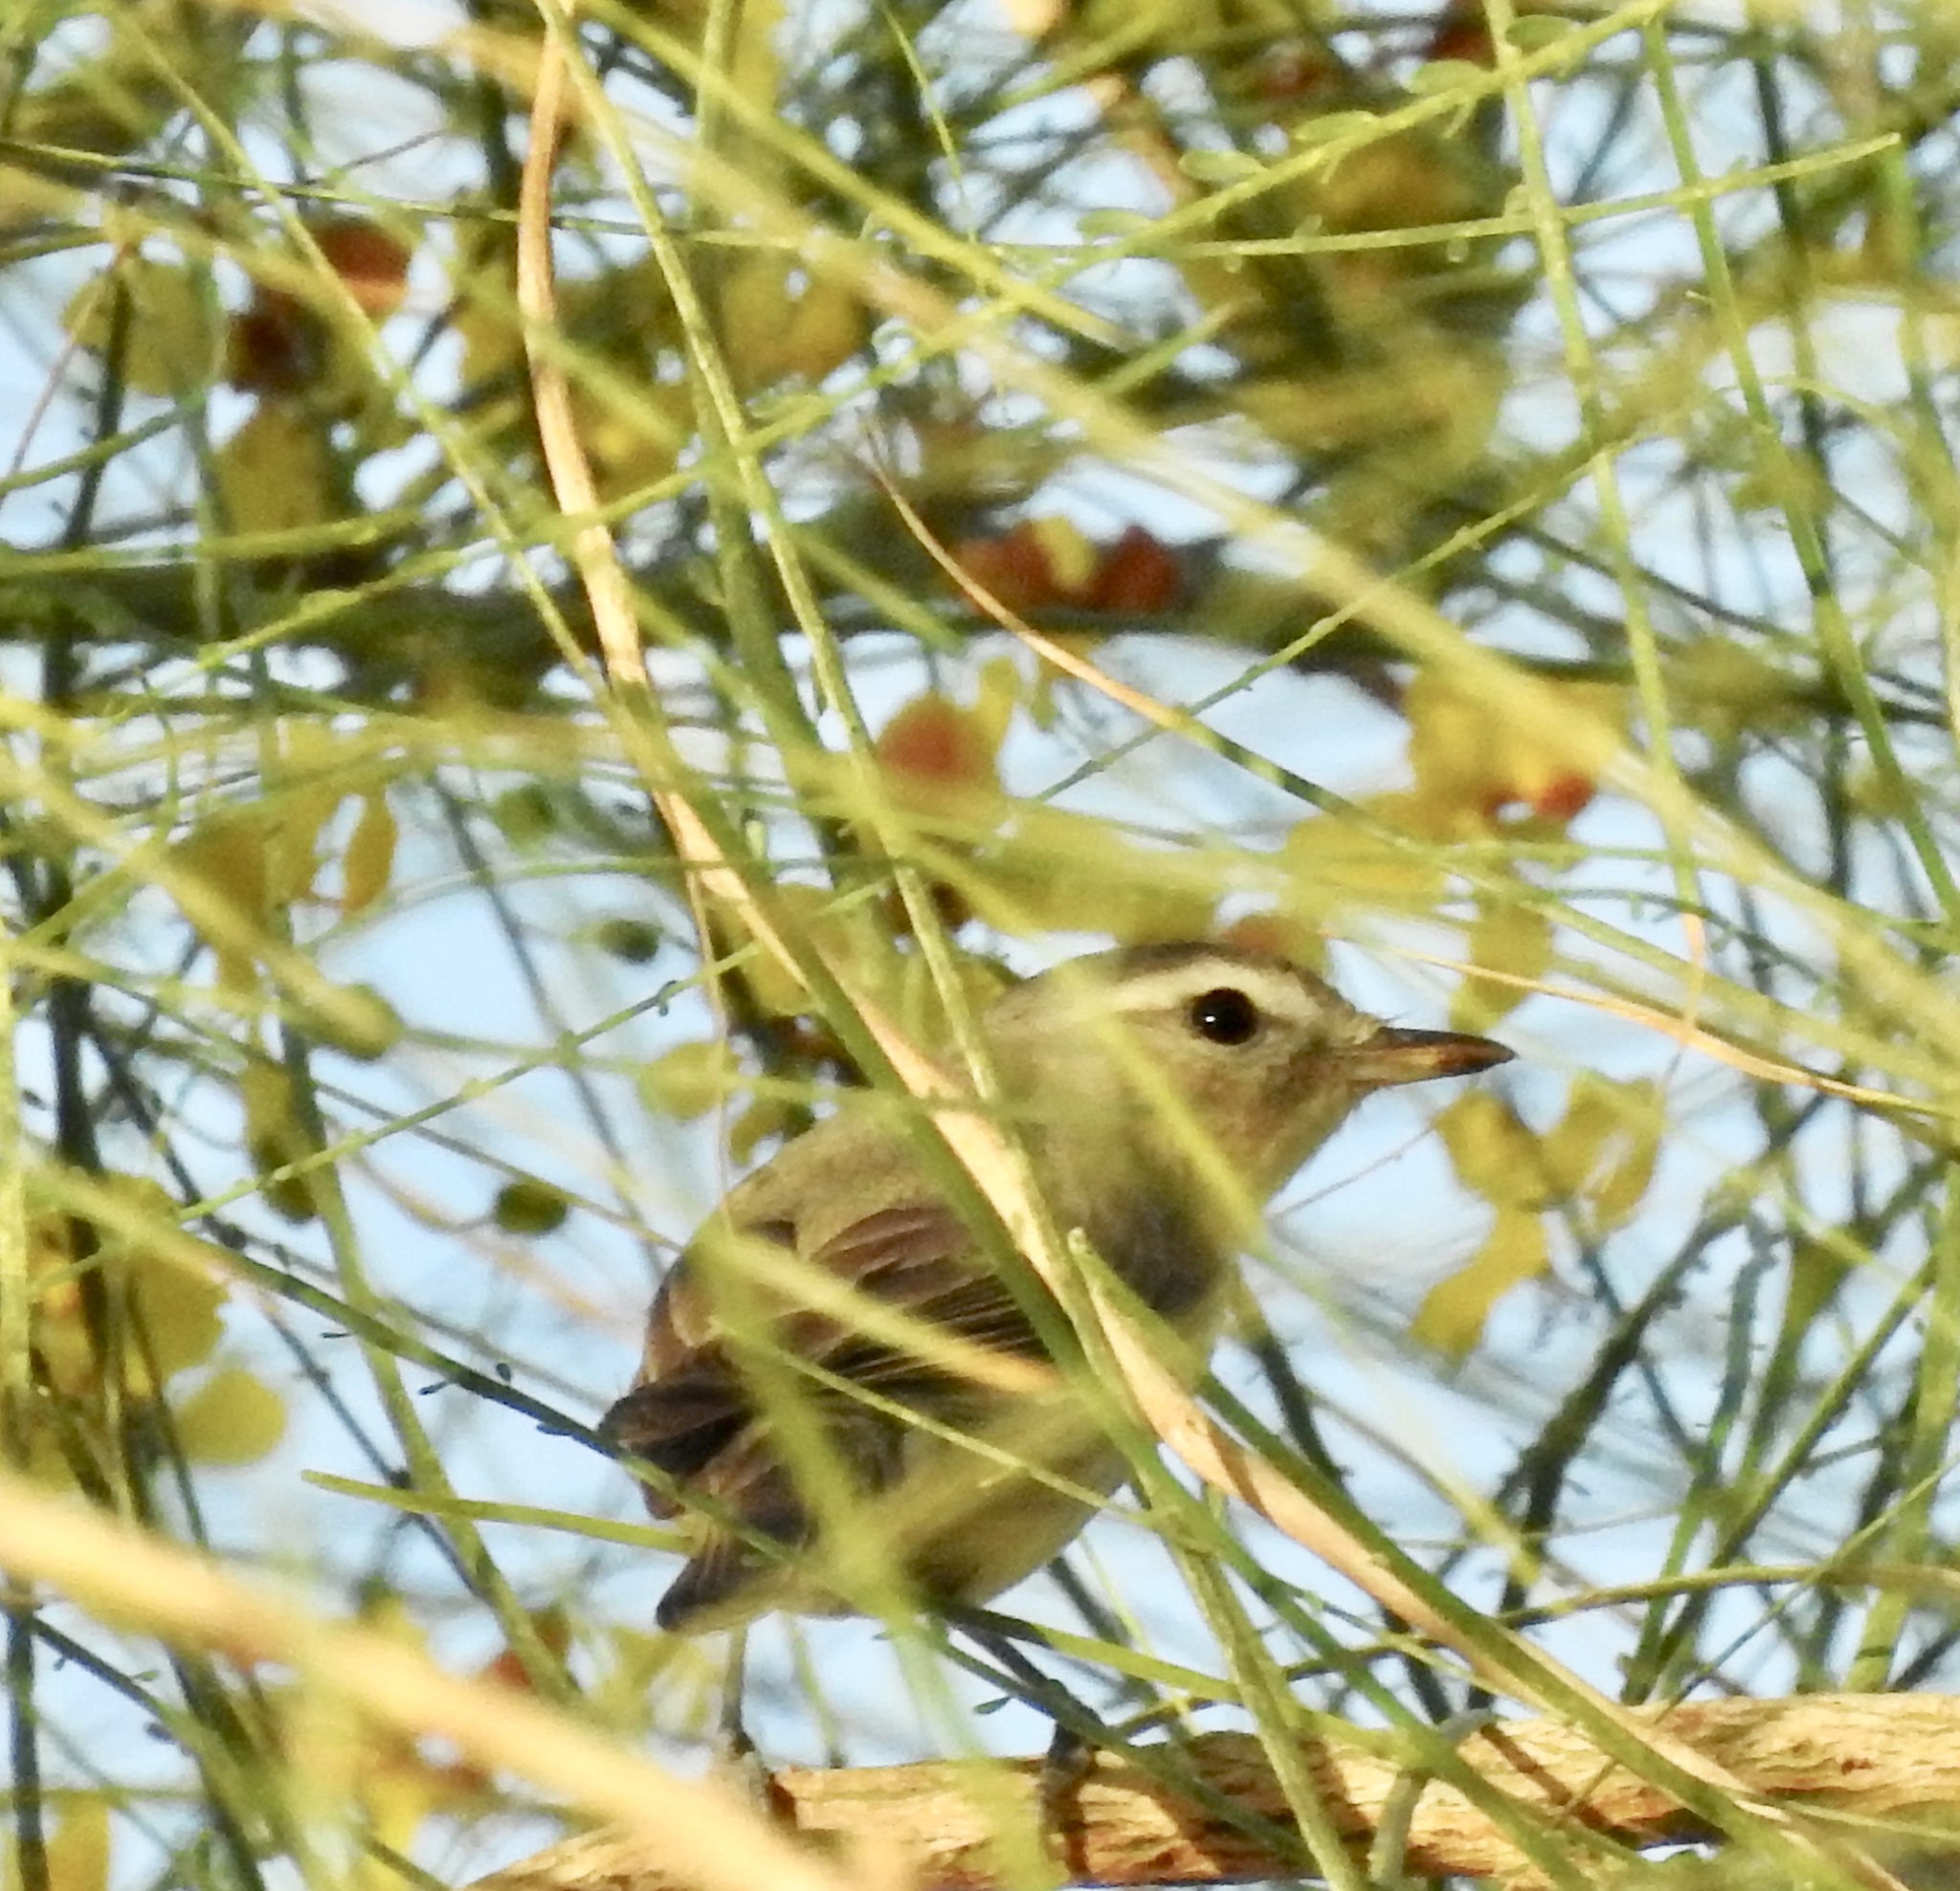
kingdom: Animalia
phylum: Chordata
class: Aves
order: Passeriformes
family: Vireonidae
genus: Vireo
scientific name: Vireo gilvus
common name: Warbling vireo
